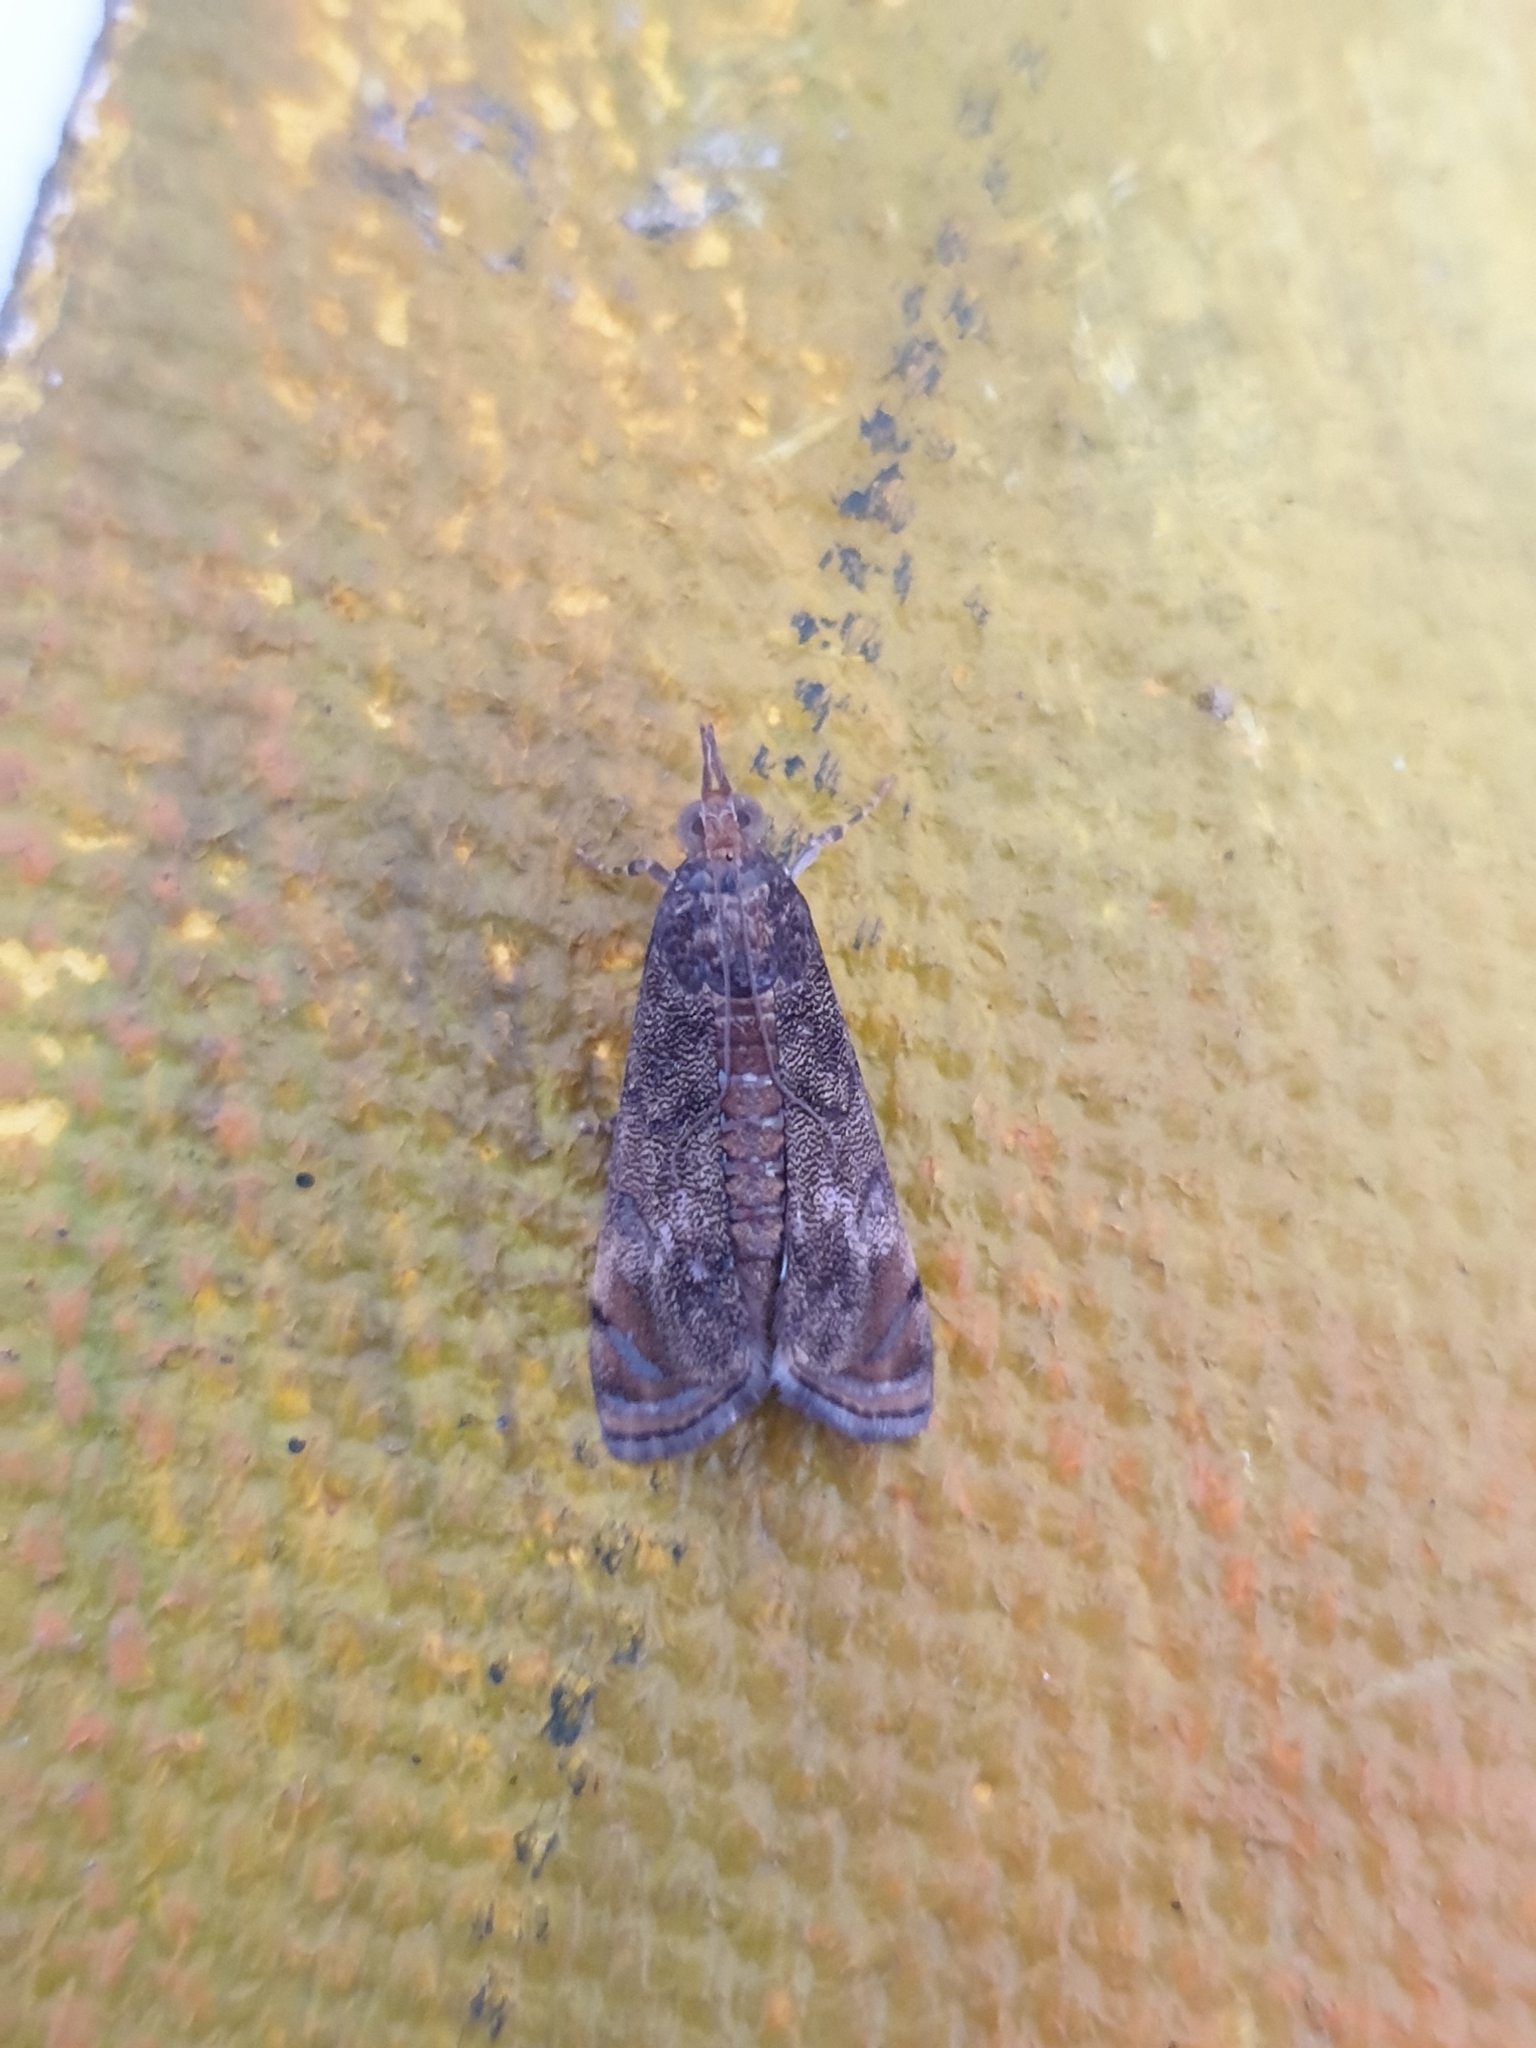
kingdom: Animalia
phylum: Arthropoda
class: Insecta
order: Lepidoptera
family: Crambidae
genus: Noorda
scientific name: Noorda blitealis
